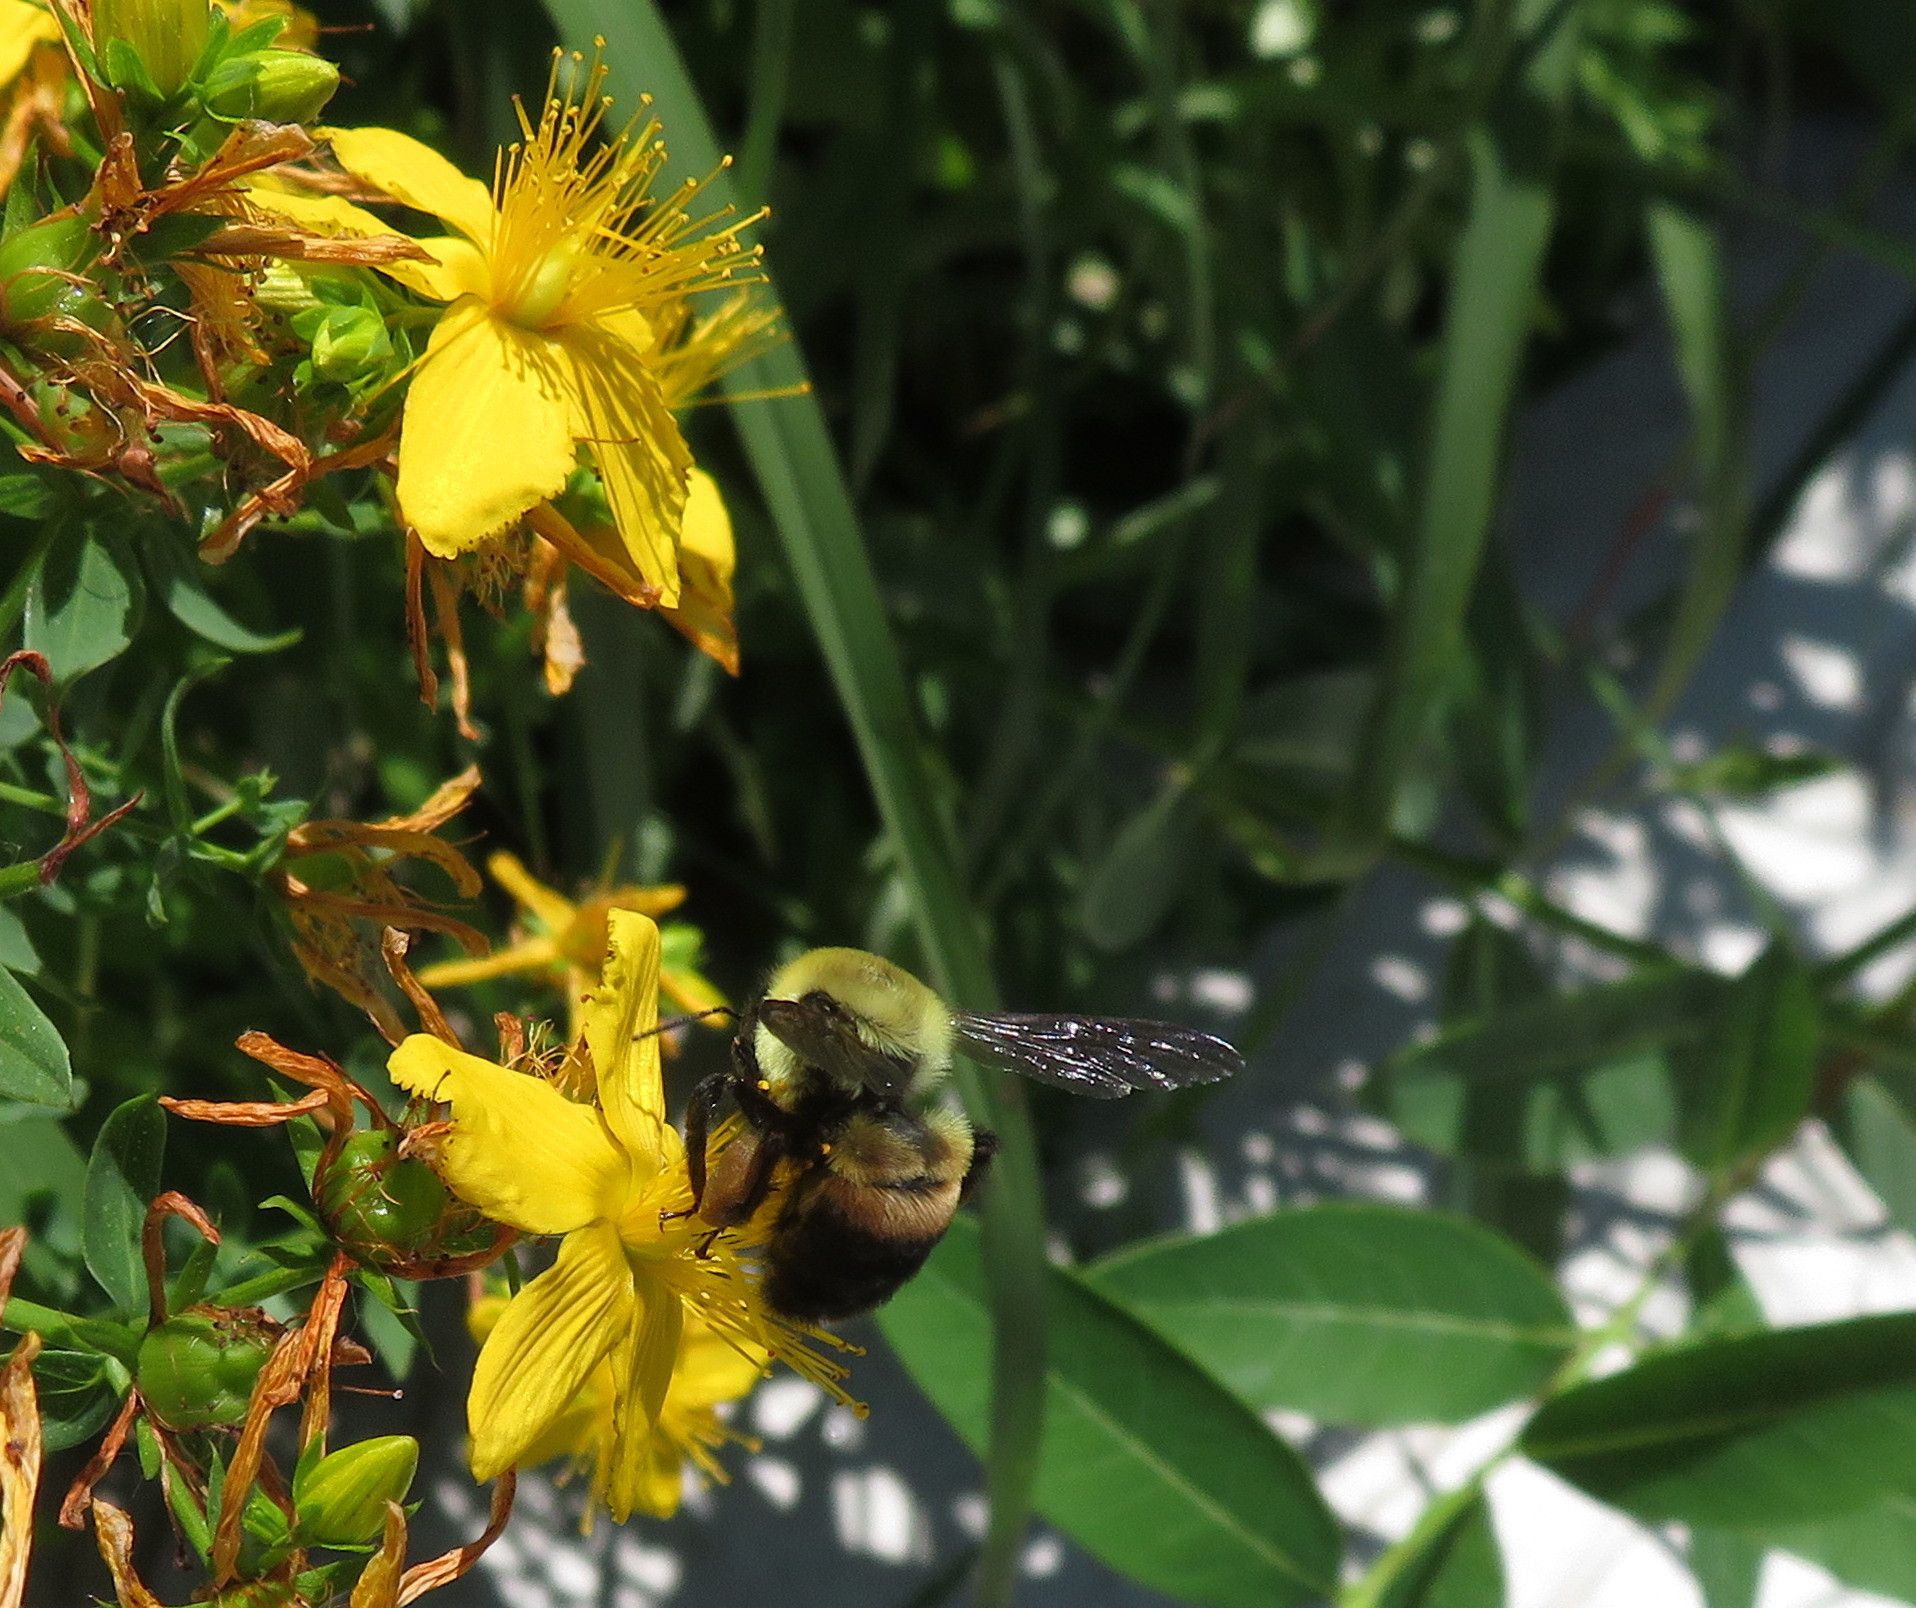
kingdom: Animalia
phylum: Arthropoda
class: Insecta
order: Hymenoptera
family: Apidae
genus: Bombus
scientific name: Bombus griseocollis
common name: Brown-belted bumble bee
